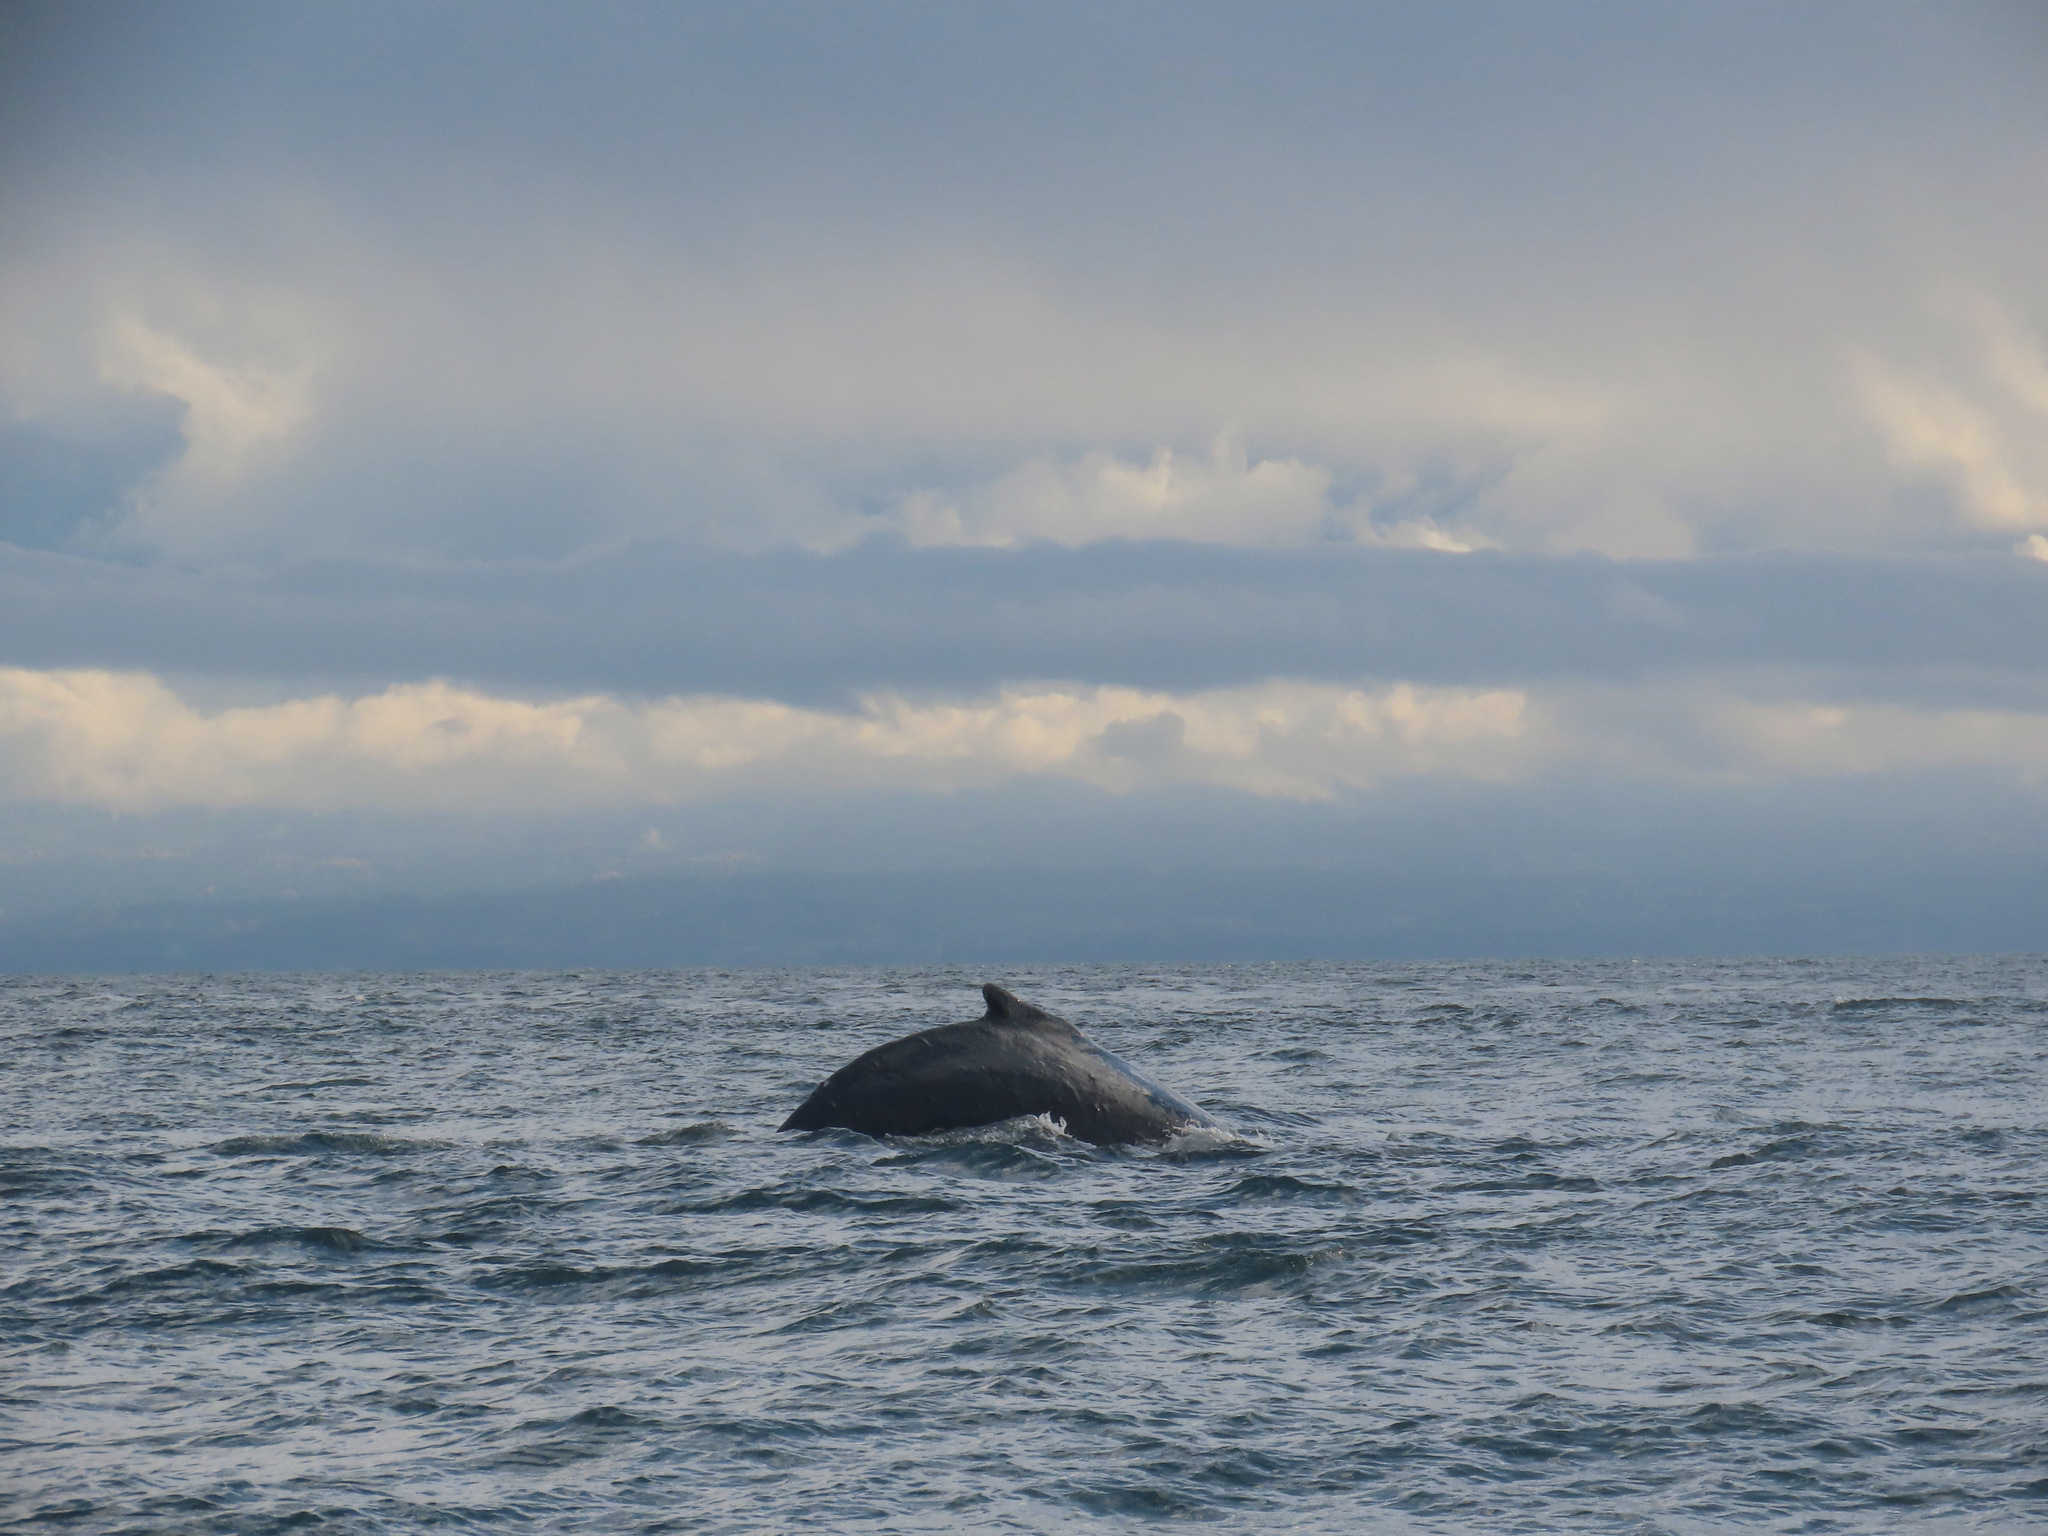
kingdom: Animalia
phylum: Chordata
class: Mammalia
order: Cetacea
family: Balaenopteridae
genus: Megaptera
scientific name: Megaptera novaeangliae
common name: Humpback whale
